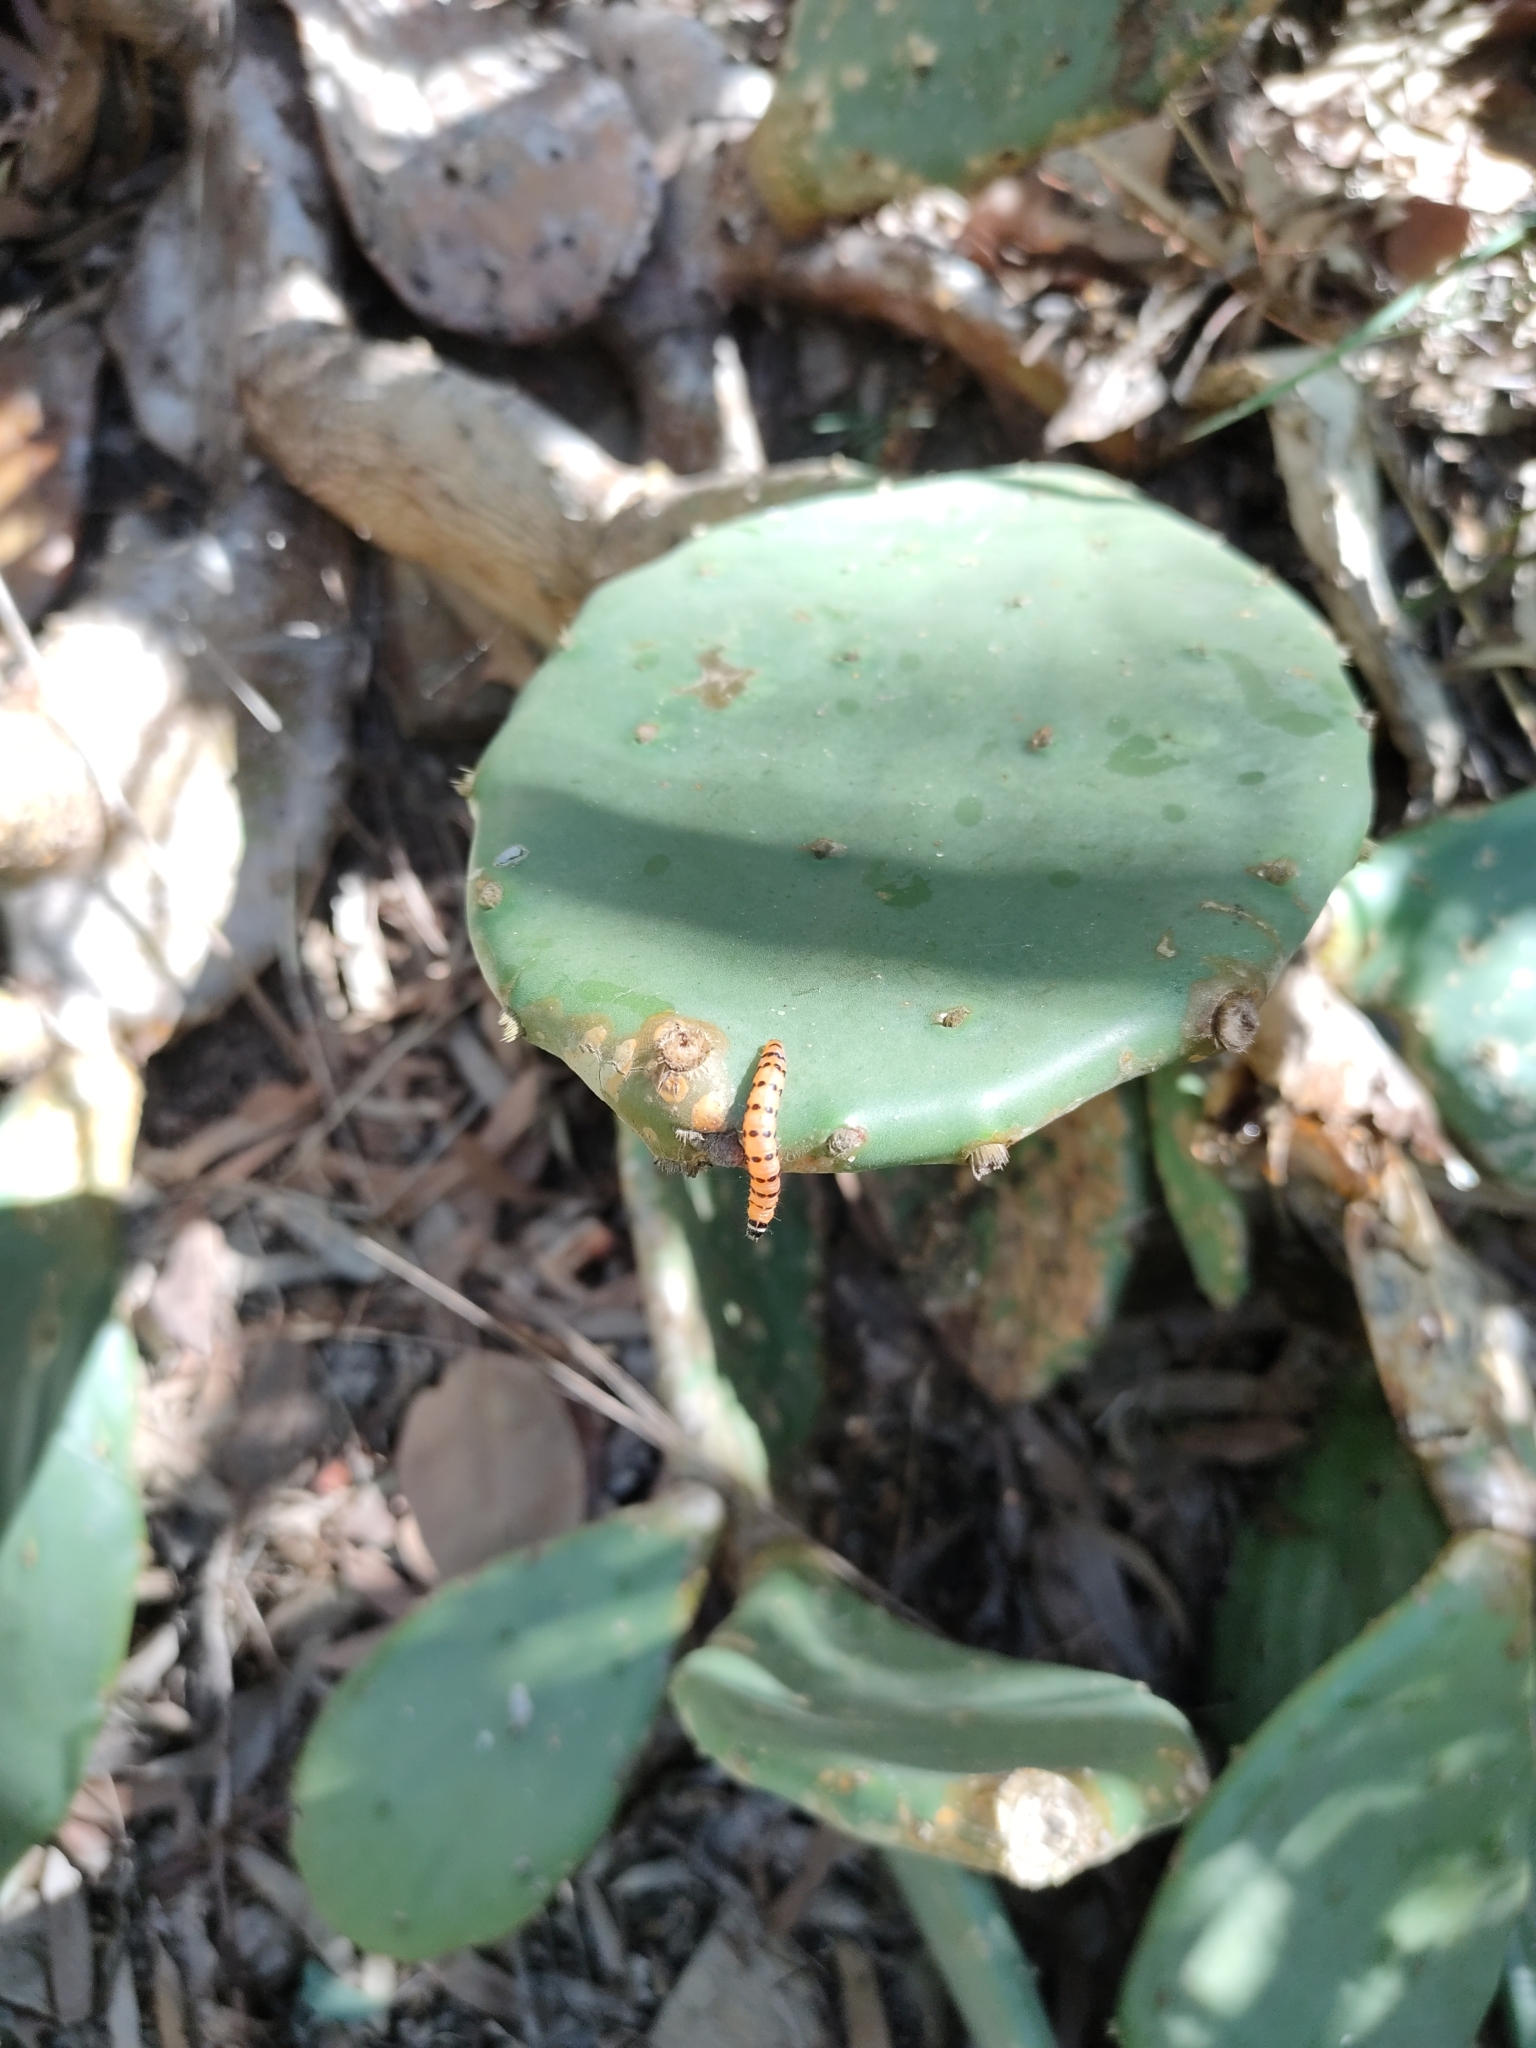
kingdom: Plantae
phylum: Tracheophyta
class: Magnoliopsida
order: Caryophyllales
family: Cactaceae
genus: Opuntia
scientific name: Opuntia stricta
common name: Erect pricklypear
